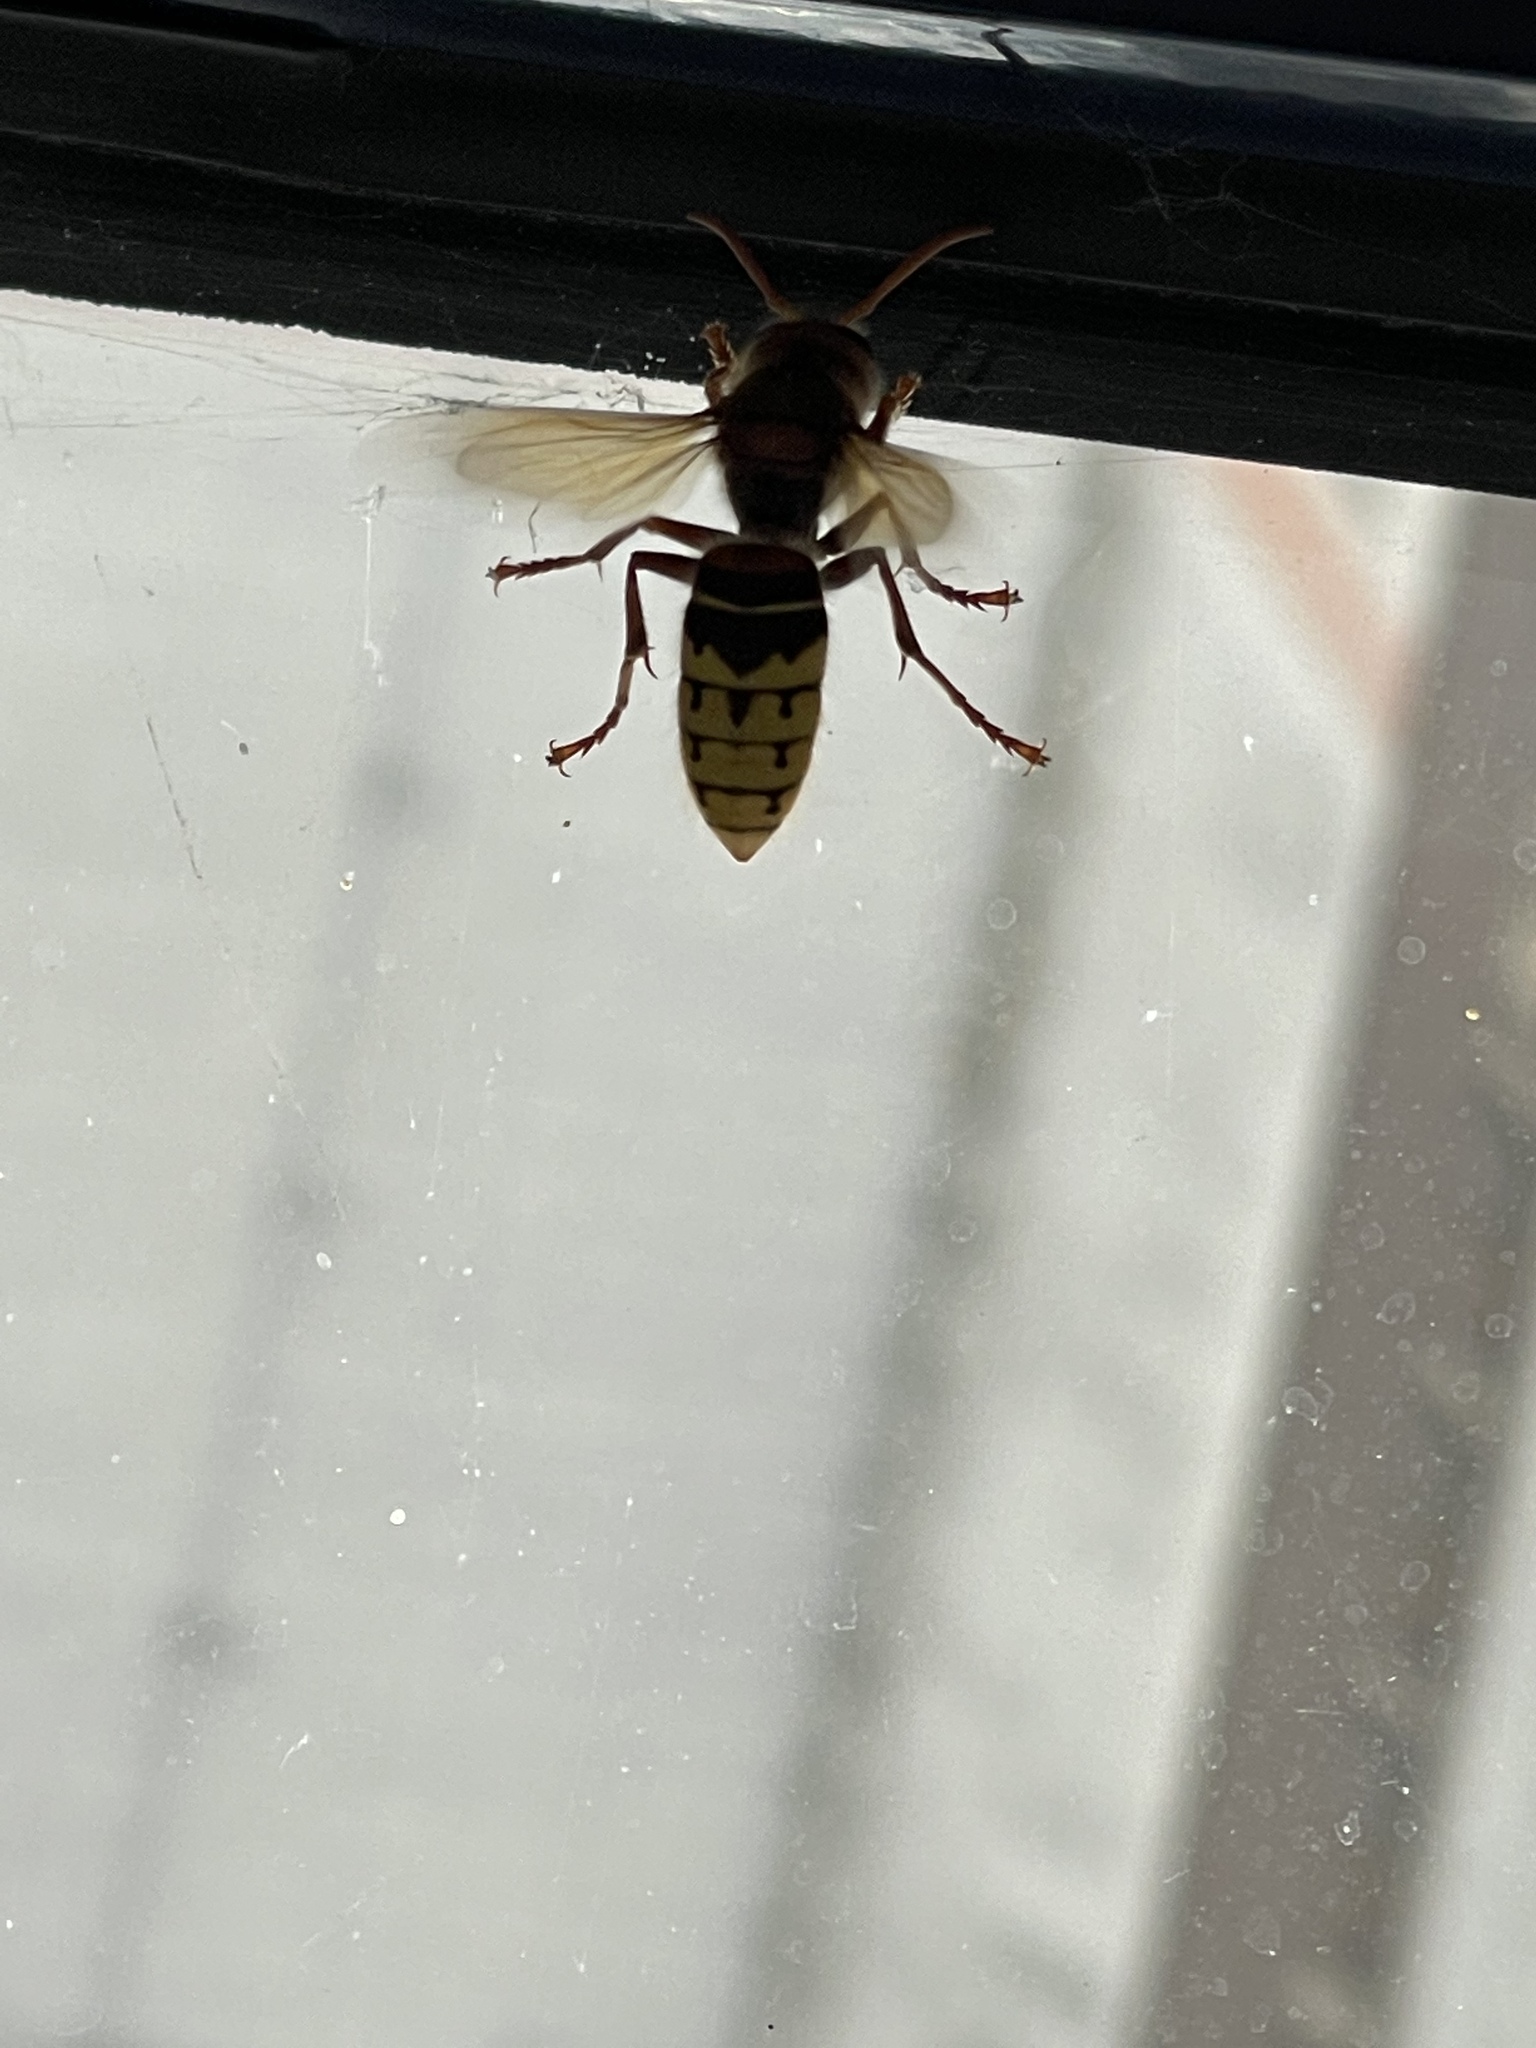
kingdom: Animalia
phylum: Arthropoda
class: Insecta
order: Hymenoptera
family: Vespidae
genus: Vespa
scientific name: Vespa crabro
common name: Hornet
